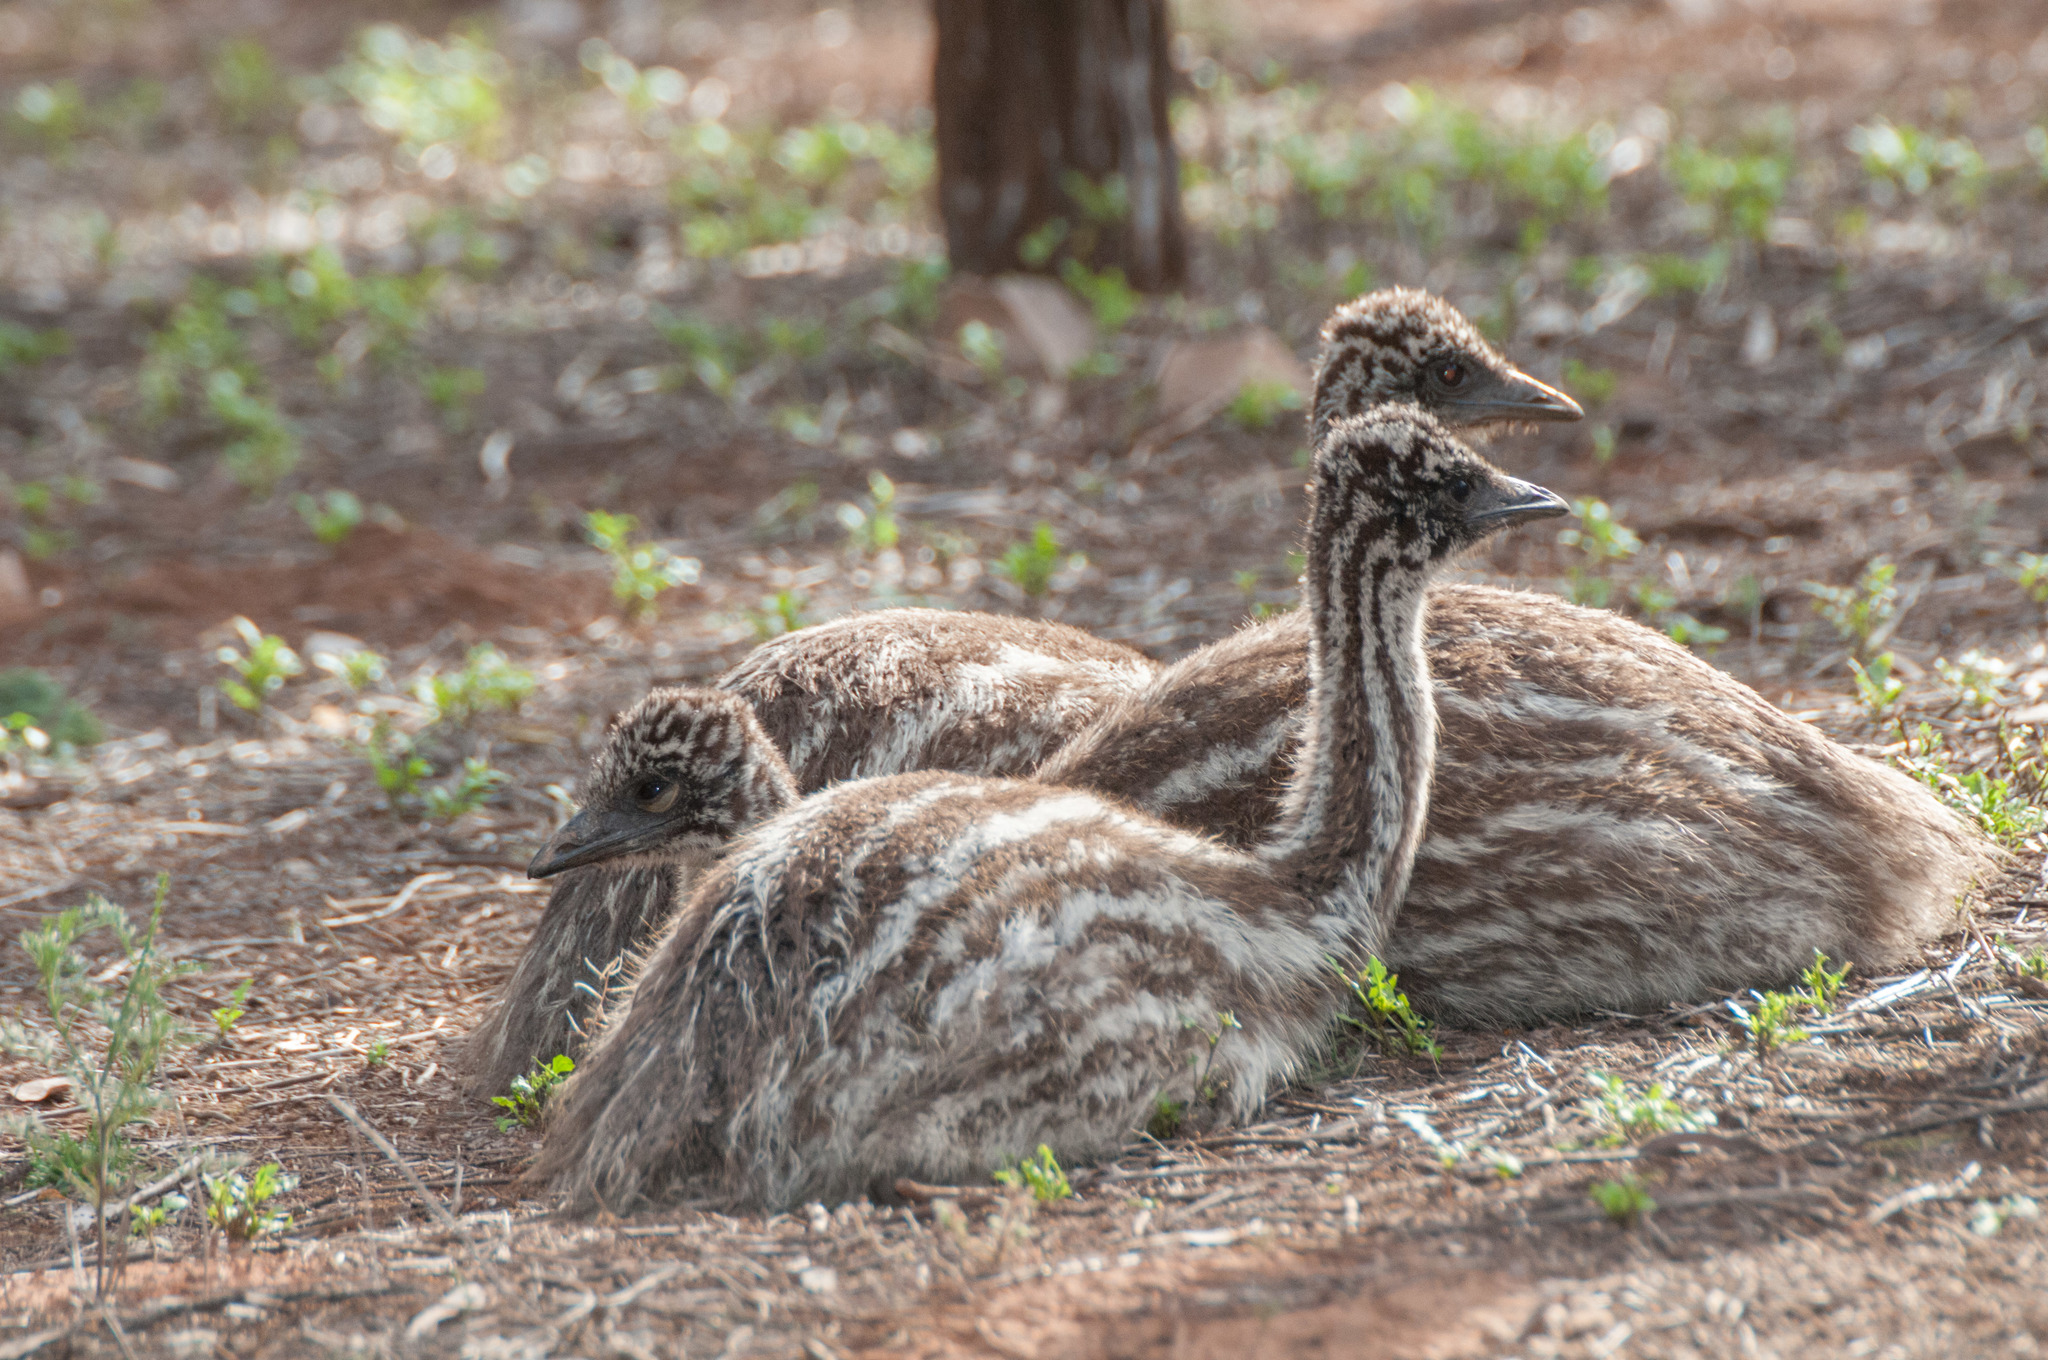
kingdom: Animalia
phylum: Chordata
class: Aves
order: Casuariiformes
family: Dromaiidae
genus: Dromaius
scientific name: Dromaius novaehollandiae
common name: Emu
